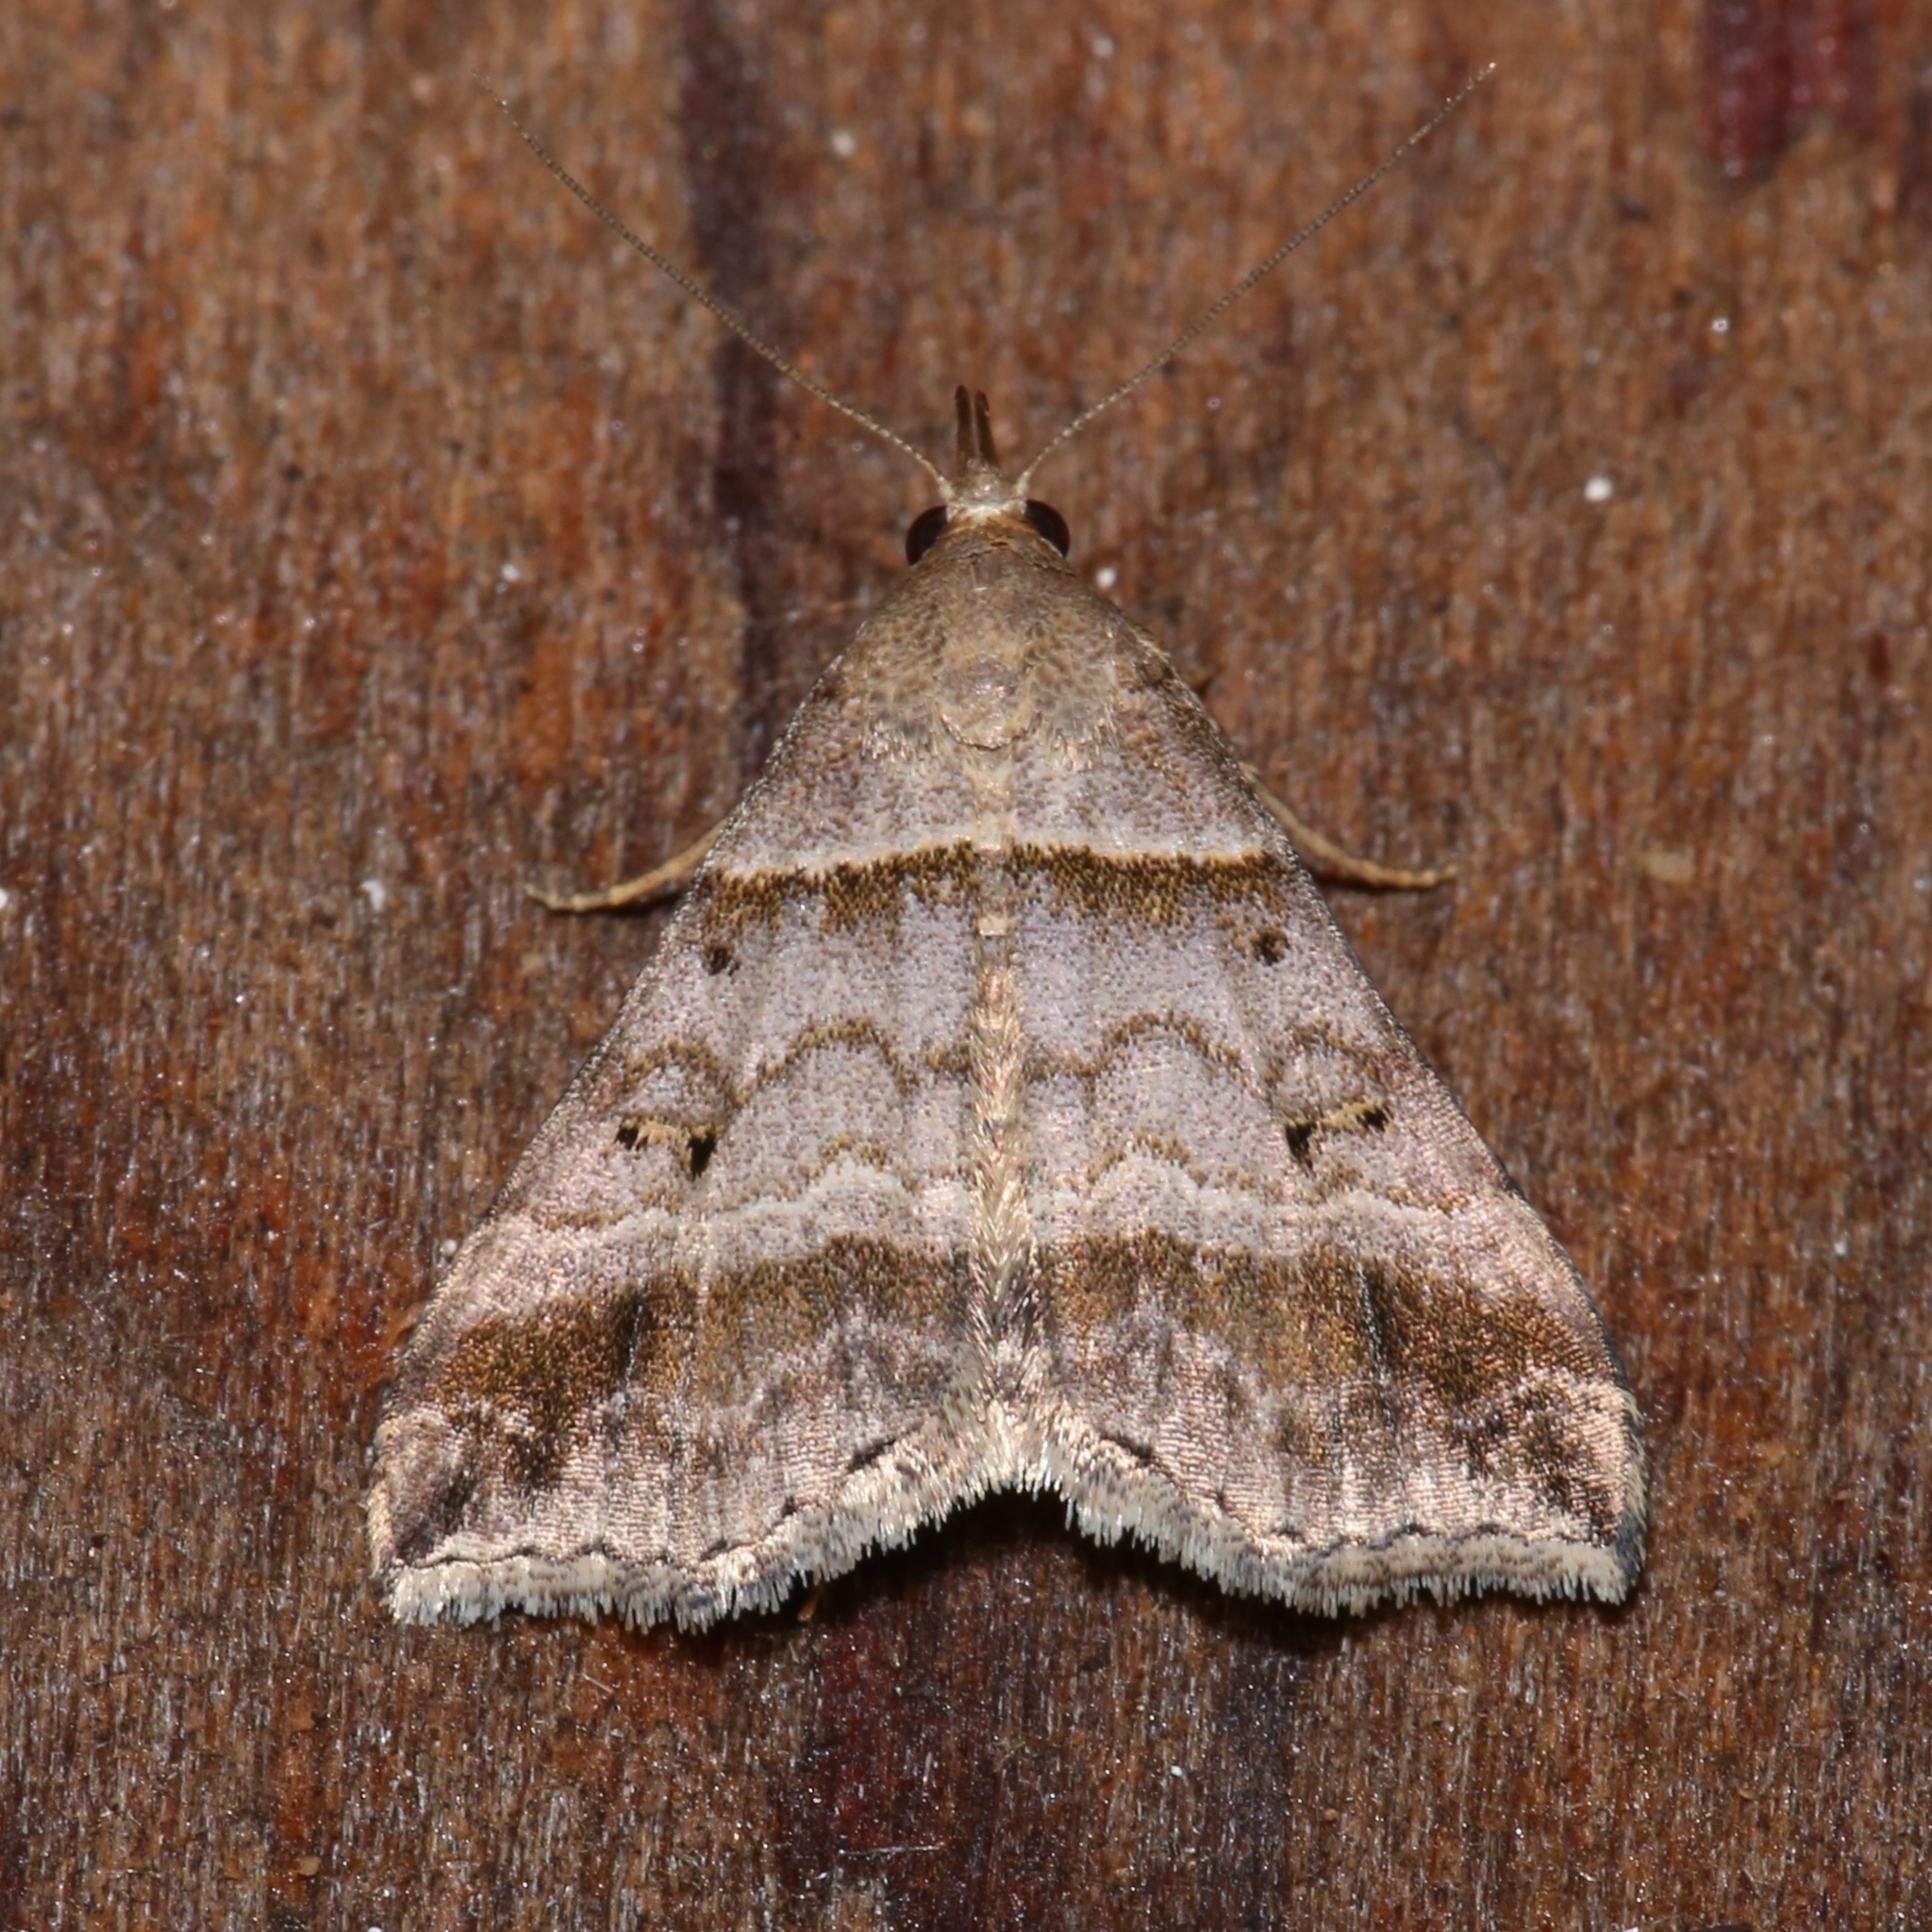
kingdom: Animalia
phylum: Arthropoda
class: Insecta
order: Lepidoptera
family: Erebidae
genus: Lascoria
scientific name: Lascoria ambigualis
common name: Ambiguous moth
